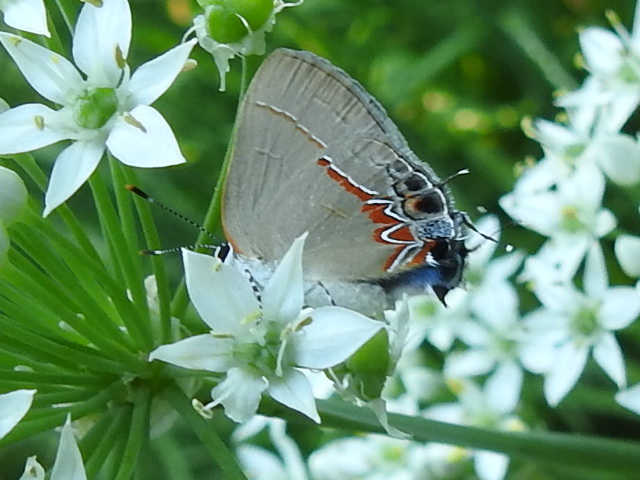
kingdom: Animalia
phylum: Arthropoda
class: Insecta
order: Lepidoptera
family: Lycaenidae
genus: Calycopis
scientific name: Calycopis isobeon
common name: Dusky-blue groundstreak
